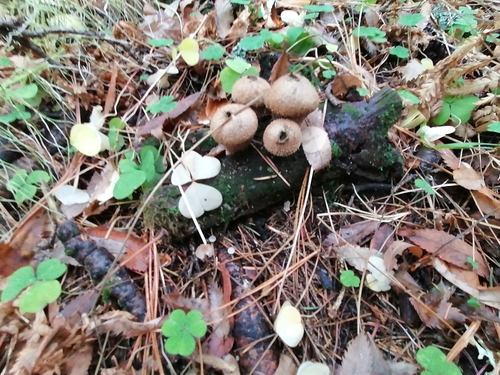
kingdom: Fungi
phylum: Basidiomycota
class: Agaricomycetes
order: Agaricales
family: Lycoperdaceae
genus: Lycoperdon
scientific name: Lycoperdon perlatum
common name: Common puffball
